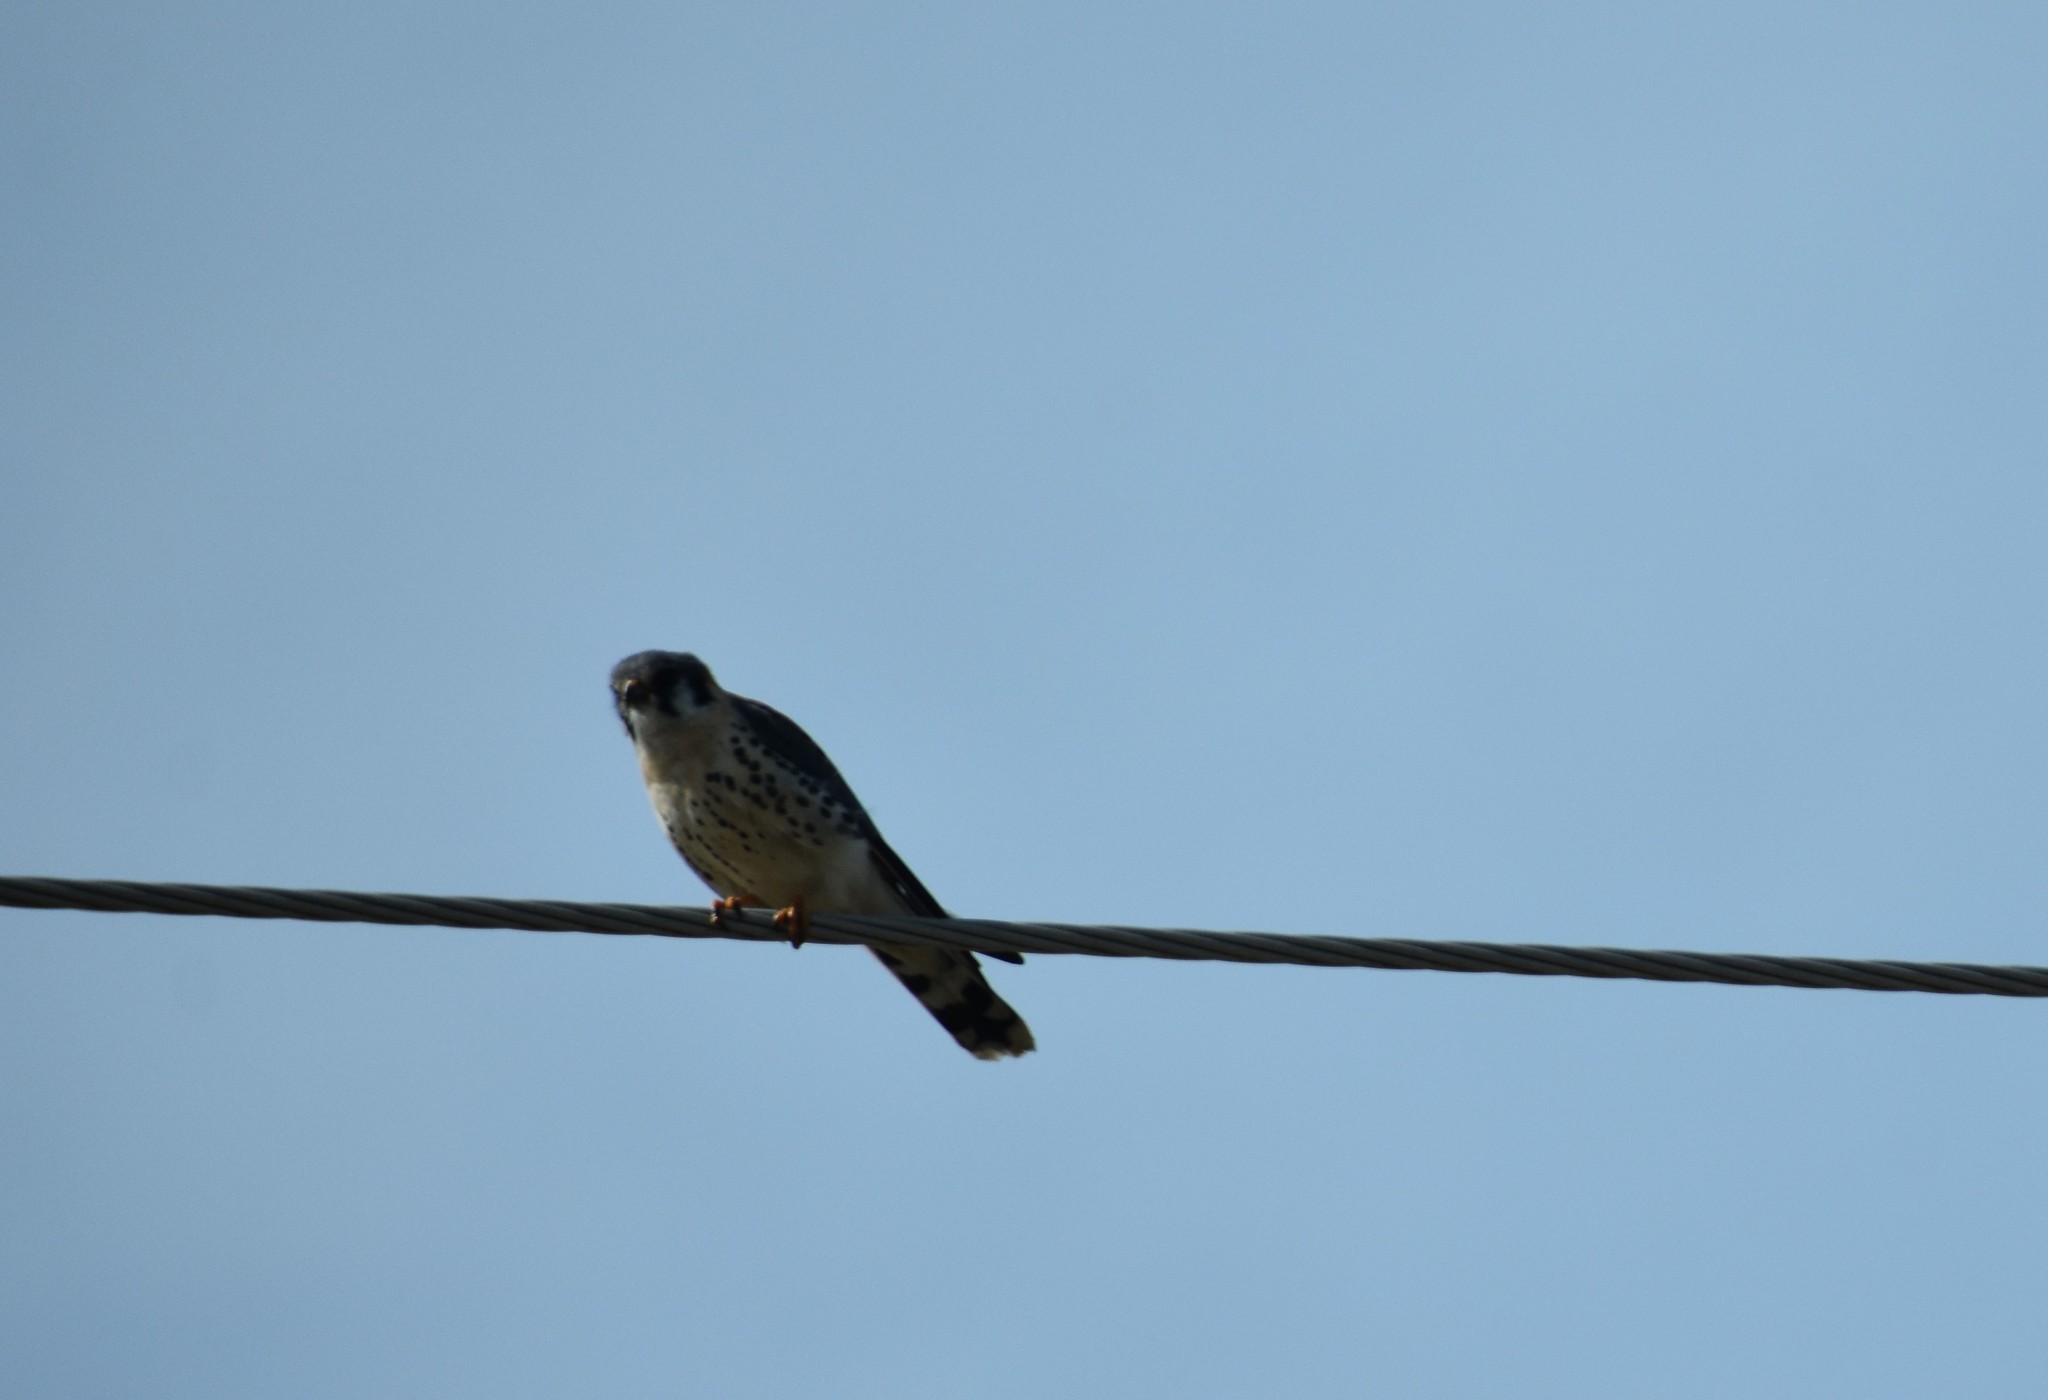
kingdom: Animalia
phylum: Chordata
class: Aves
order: Falconiformes
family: Falconidae
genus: Falco
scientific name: Falco sparverius
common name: American kestrel
